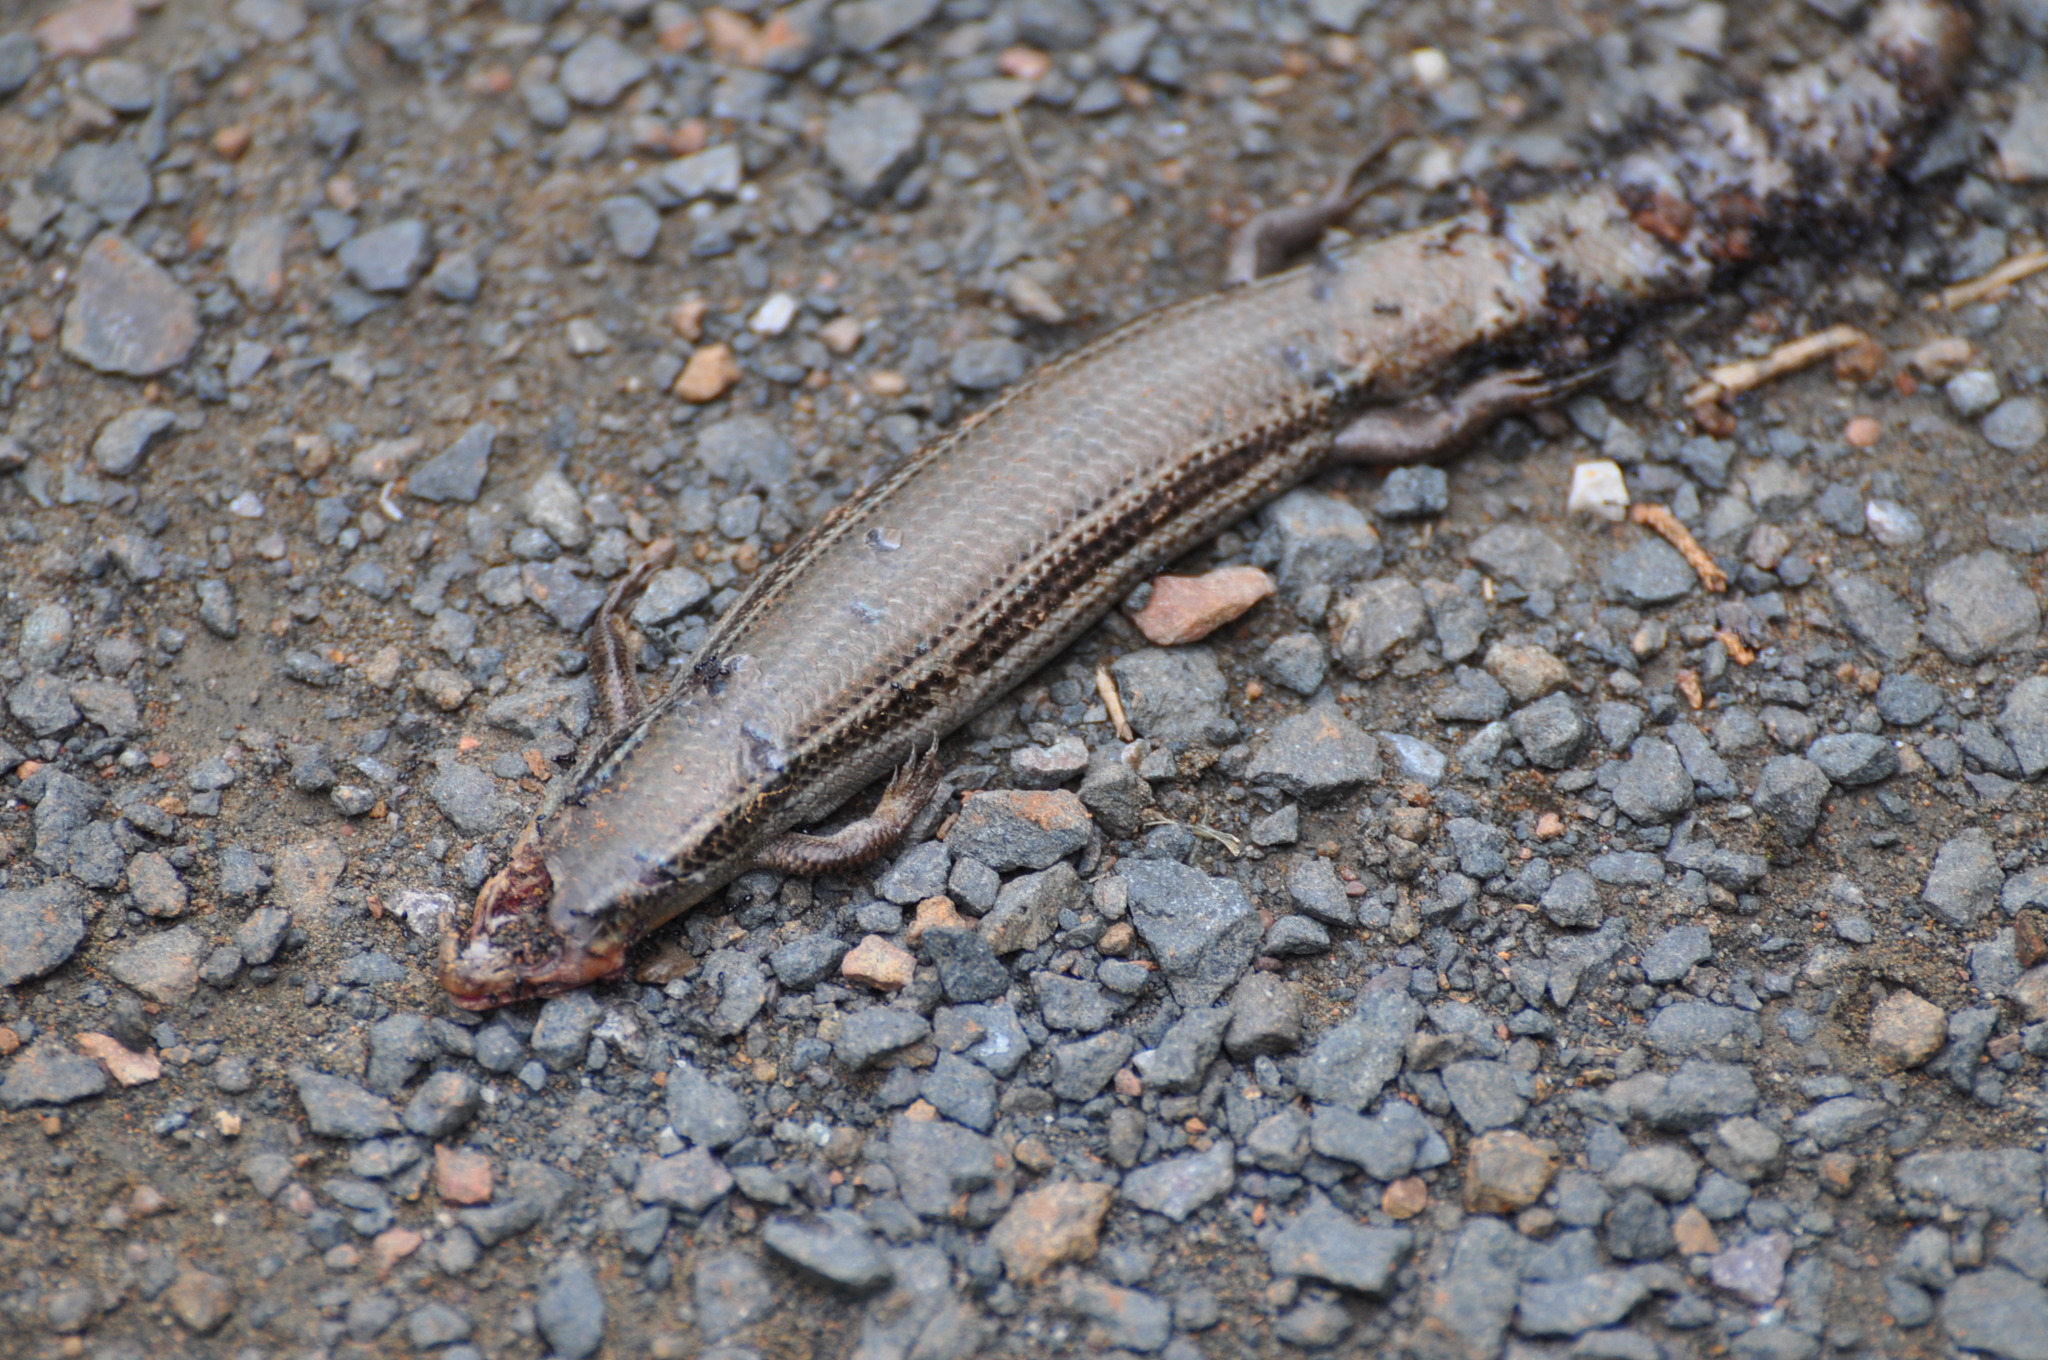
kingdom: Animalia
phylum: Chordata
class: Squamata
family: Scincidae
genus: Plestiodon
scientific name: Plestiodon septentrionalis
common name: Northern prairie skink
